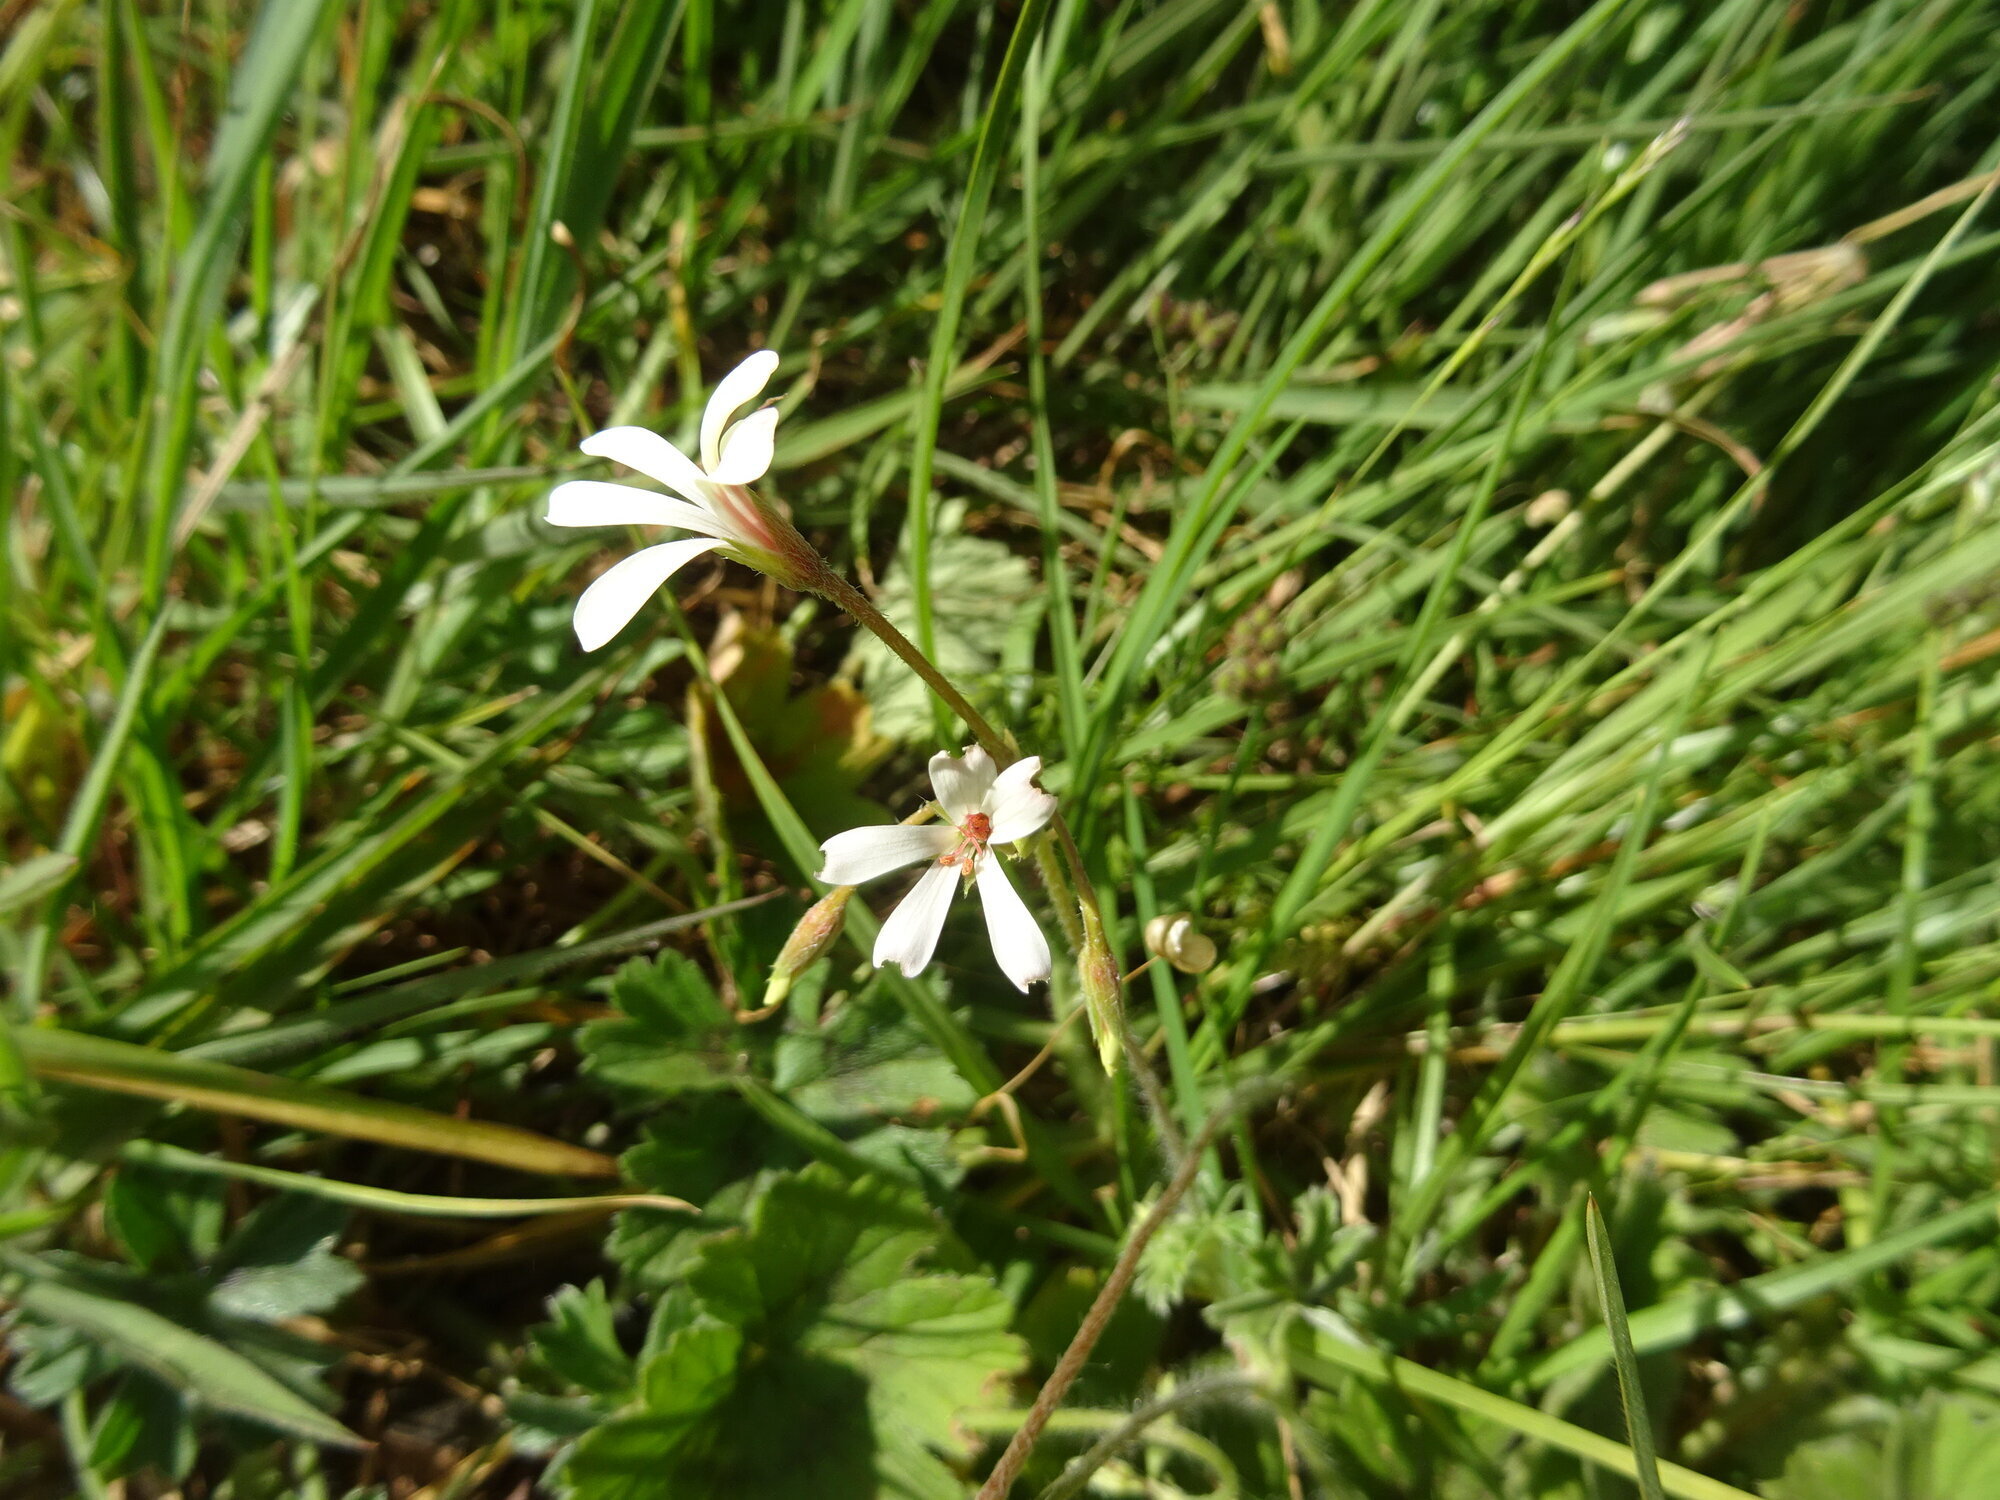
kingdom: Plantae
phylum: Tracheophyta
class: Magnoliopsida
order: Geraniales
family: Geraniaceae
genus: Pelargonium
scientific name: Pelargonium alchemilloides
